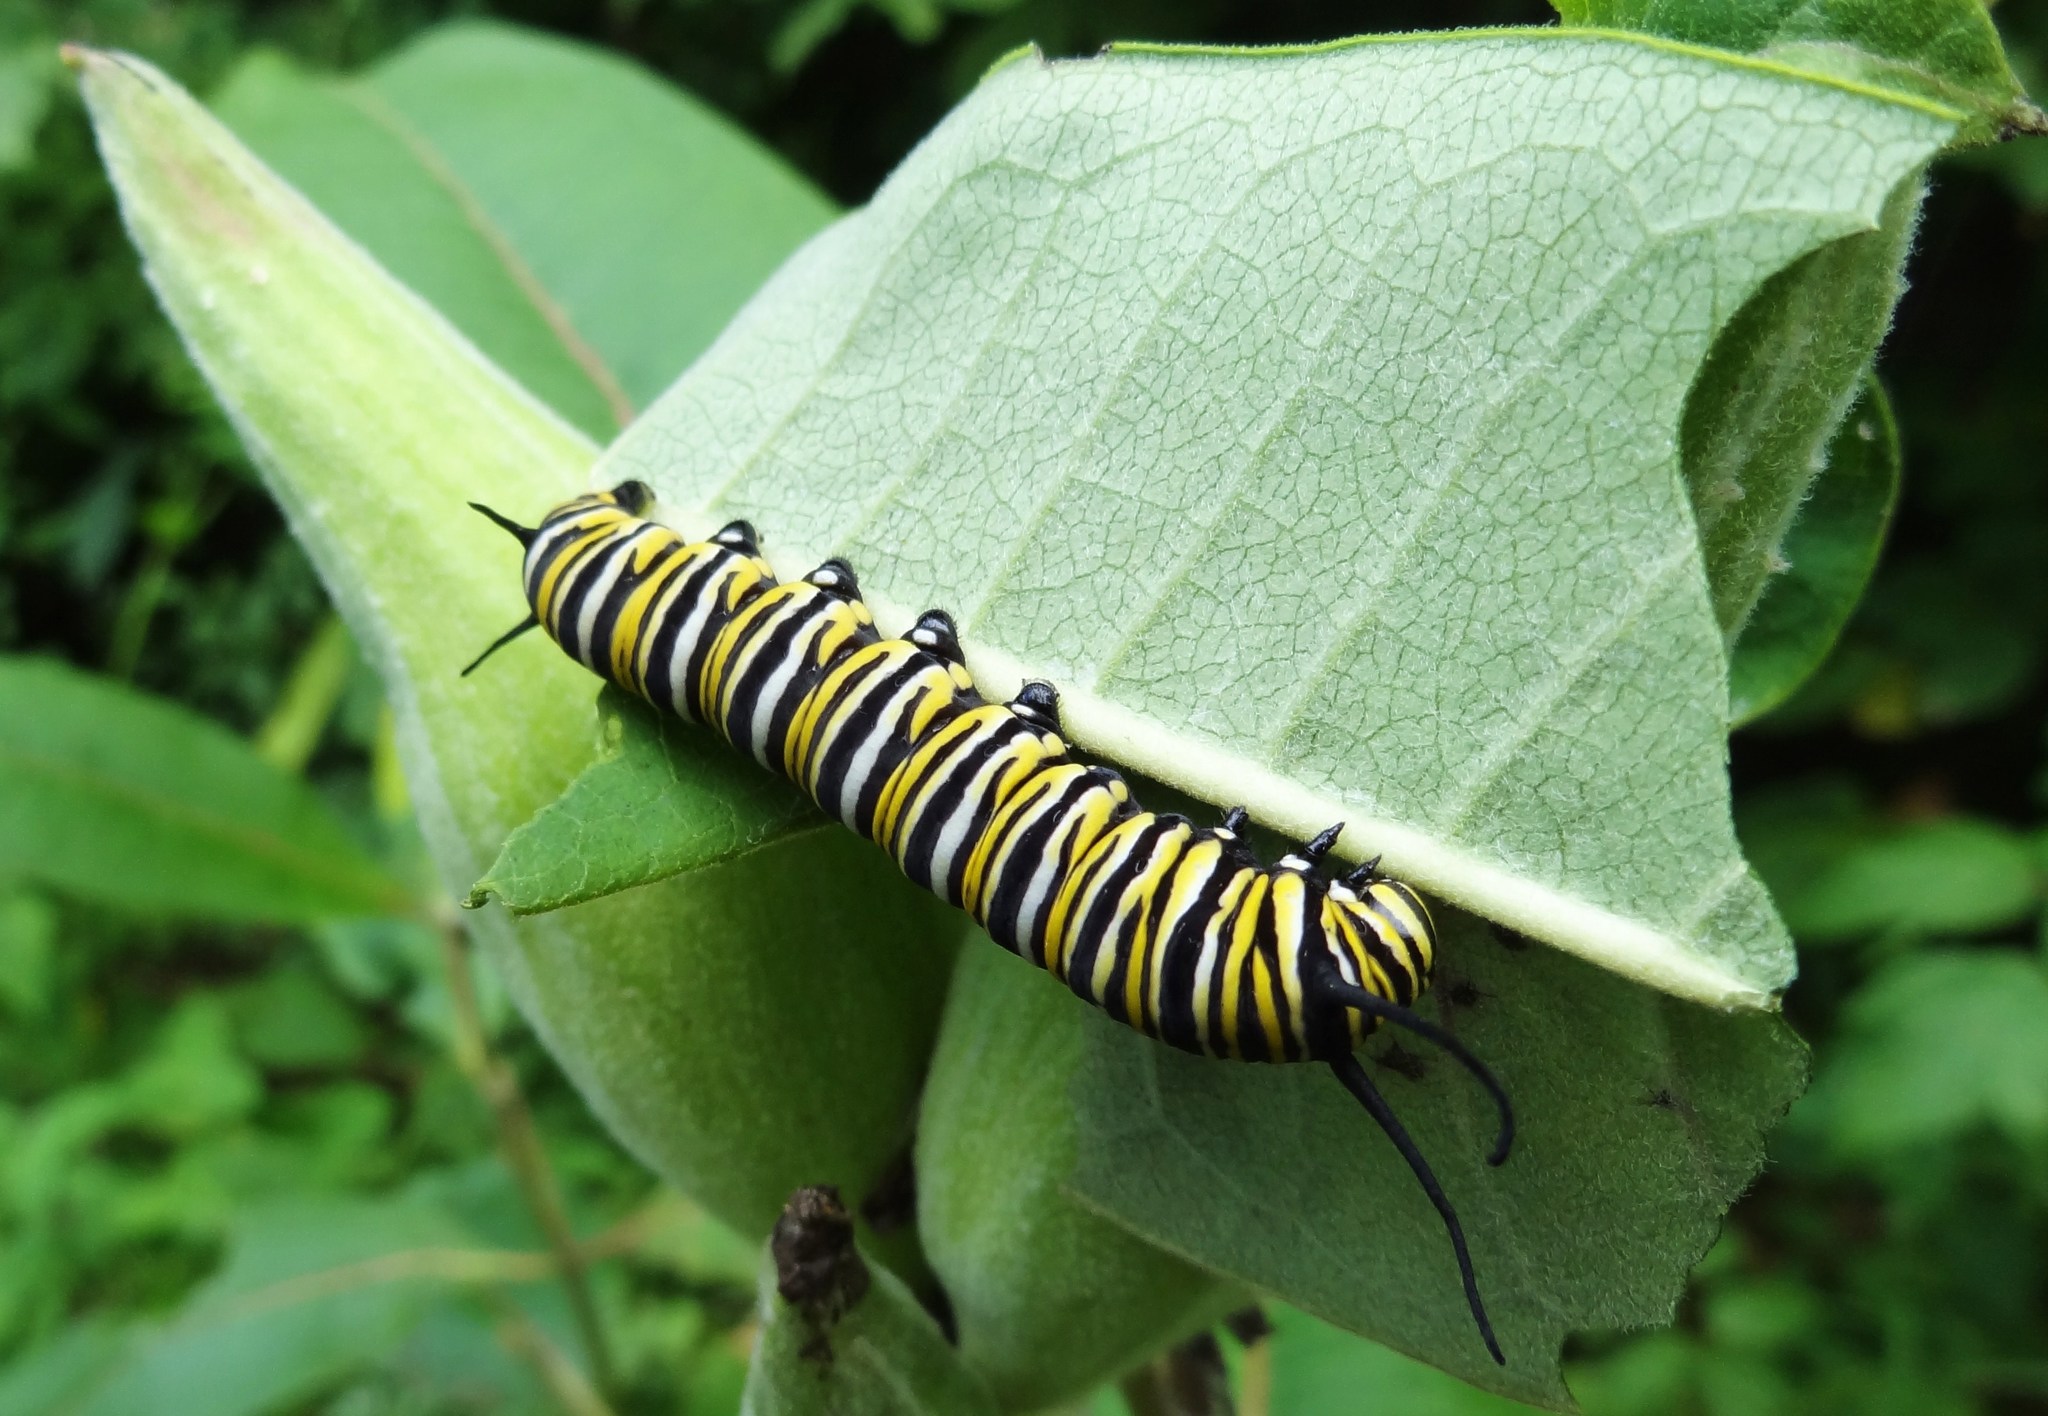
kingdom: Animalia
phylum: Arthropoda
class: Insecta
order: Lepidoptera
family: Nymphalidae
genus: Danaus
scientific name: Danaus plexippus
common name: Monarch
